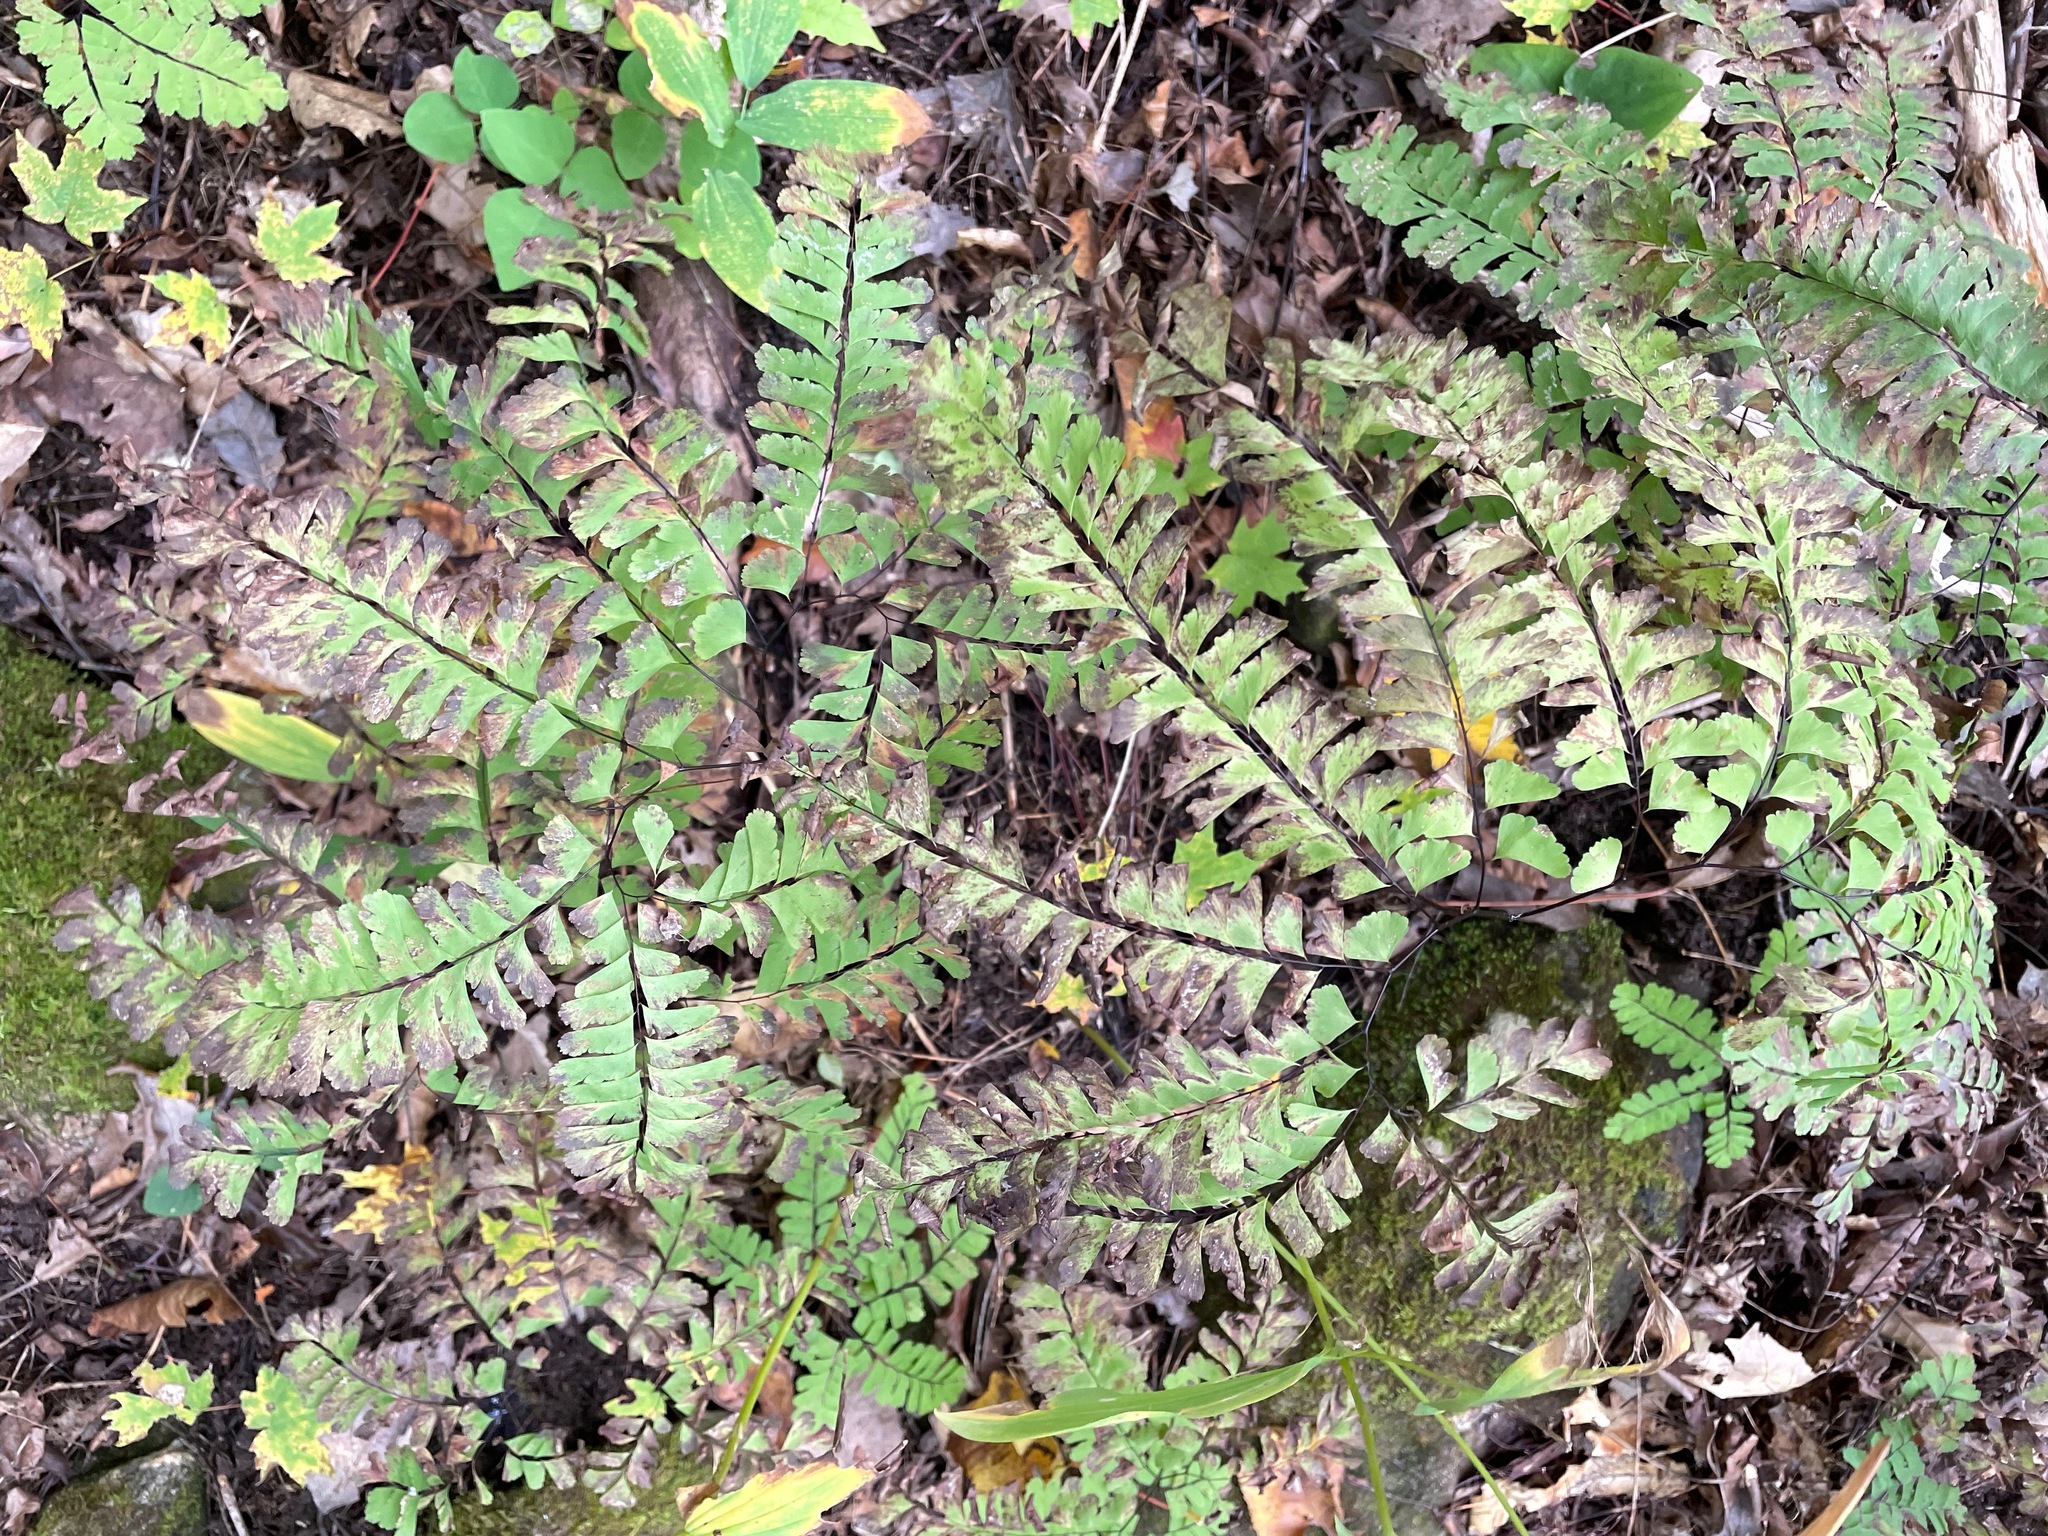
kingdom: Plantae
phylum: Tracheophyta
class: Polypodiopsida
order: Polypodiales
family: Pteridaceae
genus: Adiantum
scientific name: Adiantum pedatum
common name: Five-finger fern
